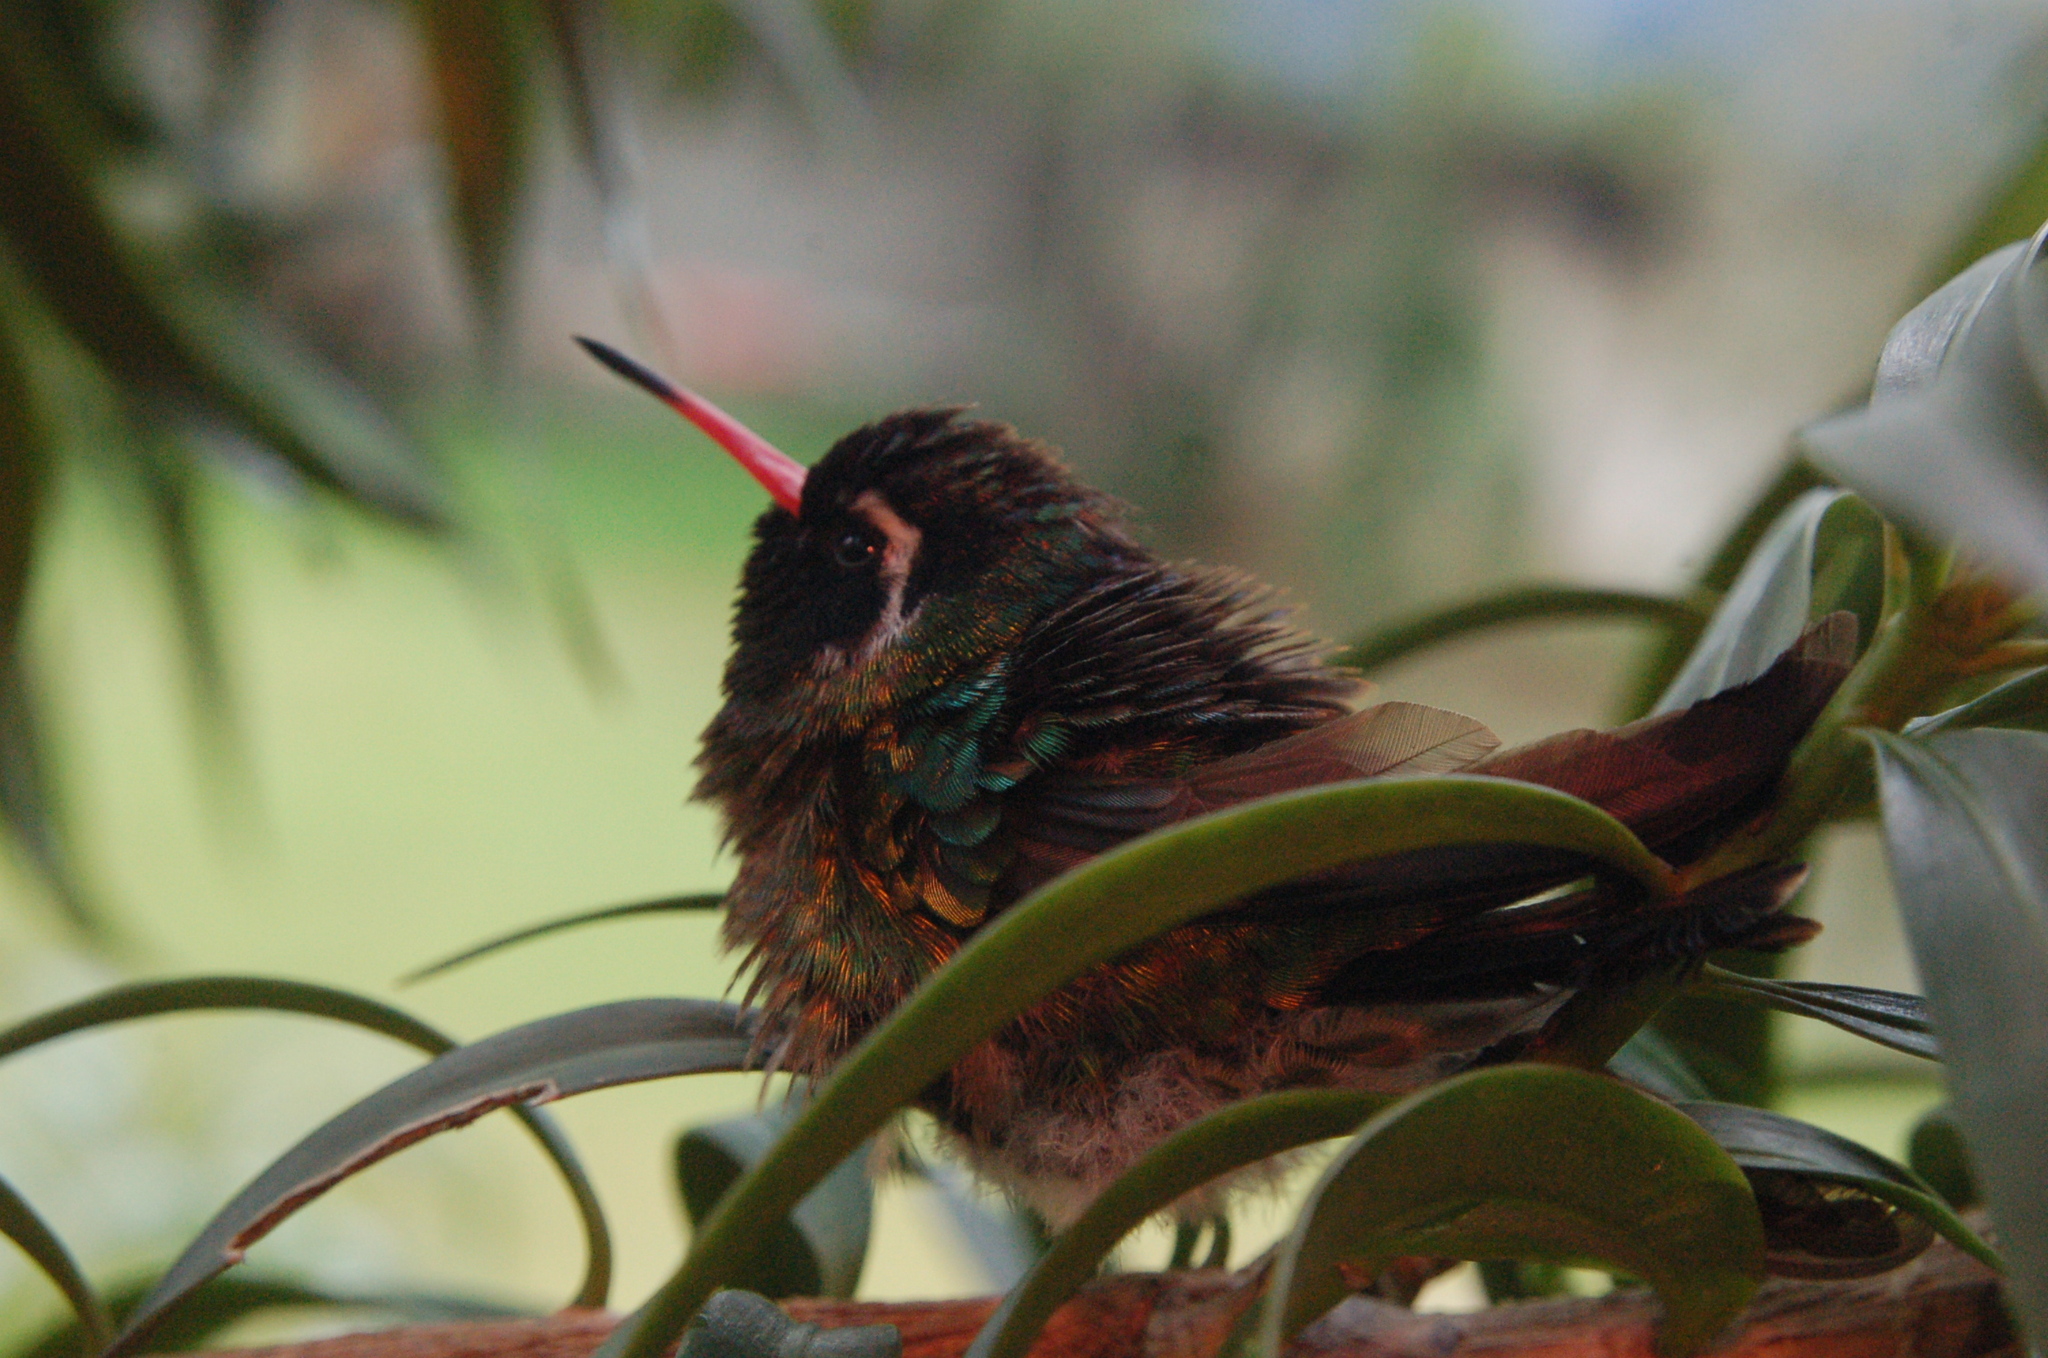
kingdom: Animalia
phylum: Chordata
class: Aves
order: Apodiformes
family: Trochilidae
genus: Basilinna
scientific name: Basilinna leucotis
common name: White-eared hummingbird
